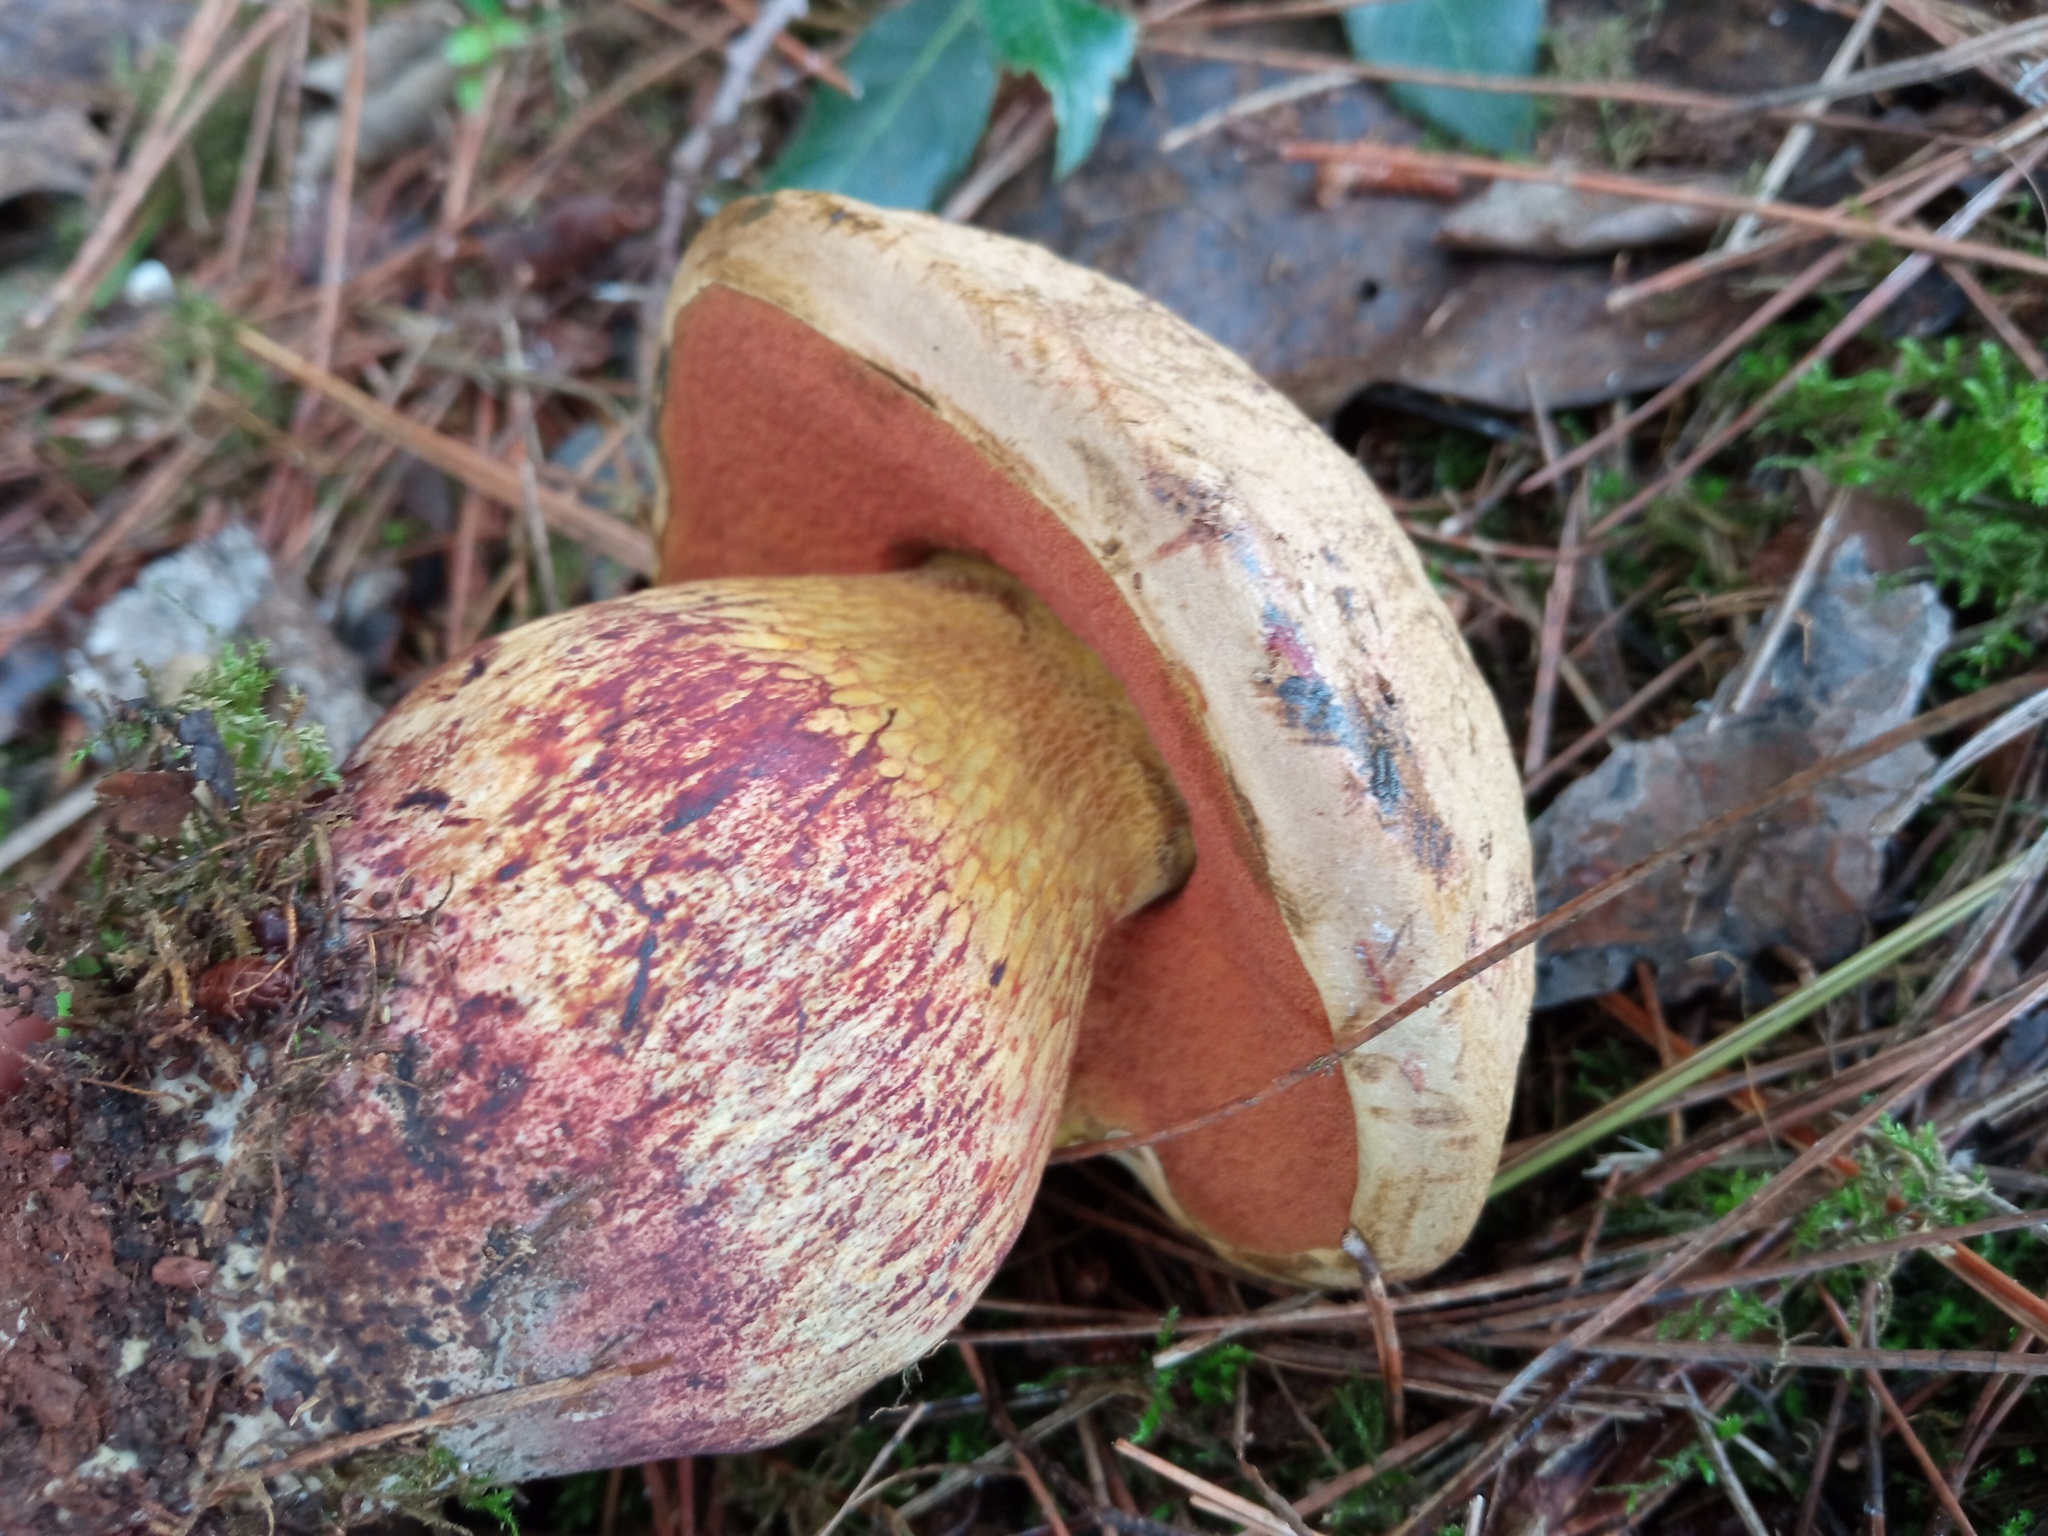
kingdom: Fungi
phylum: Basidiomycota
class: Agaricomycetes
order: Boletales
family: Boletaceae
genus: Suillellus
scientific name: Suillellus luridus
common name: Lurid bolete
